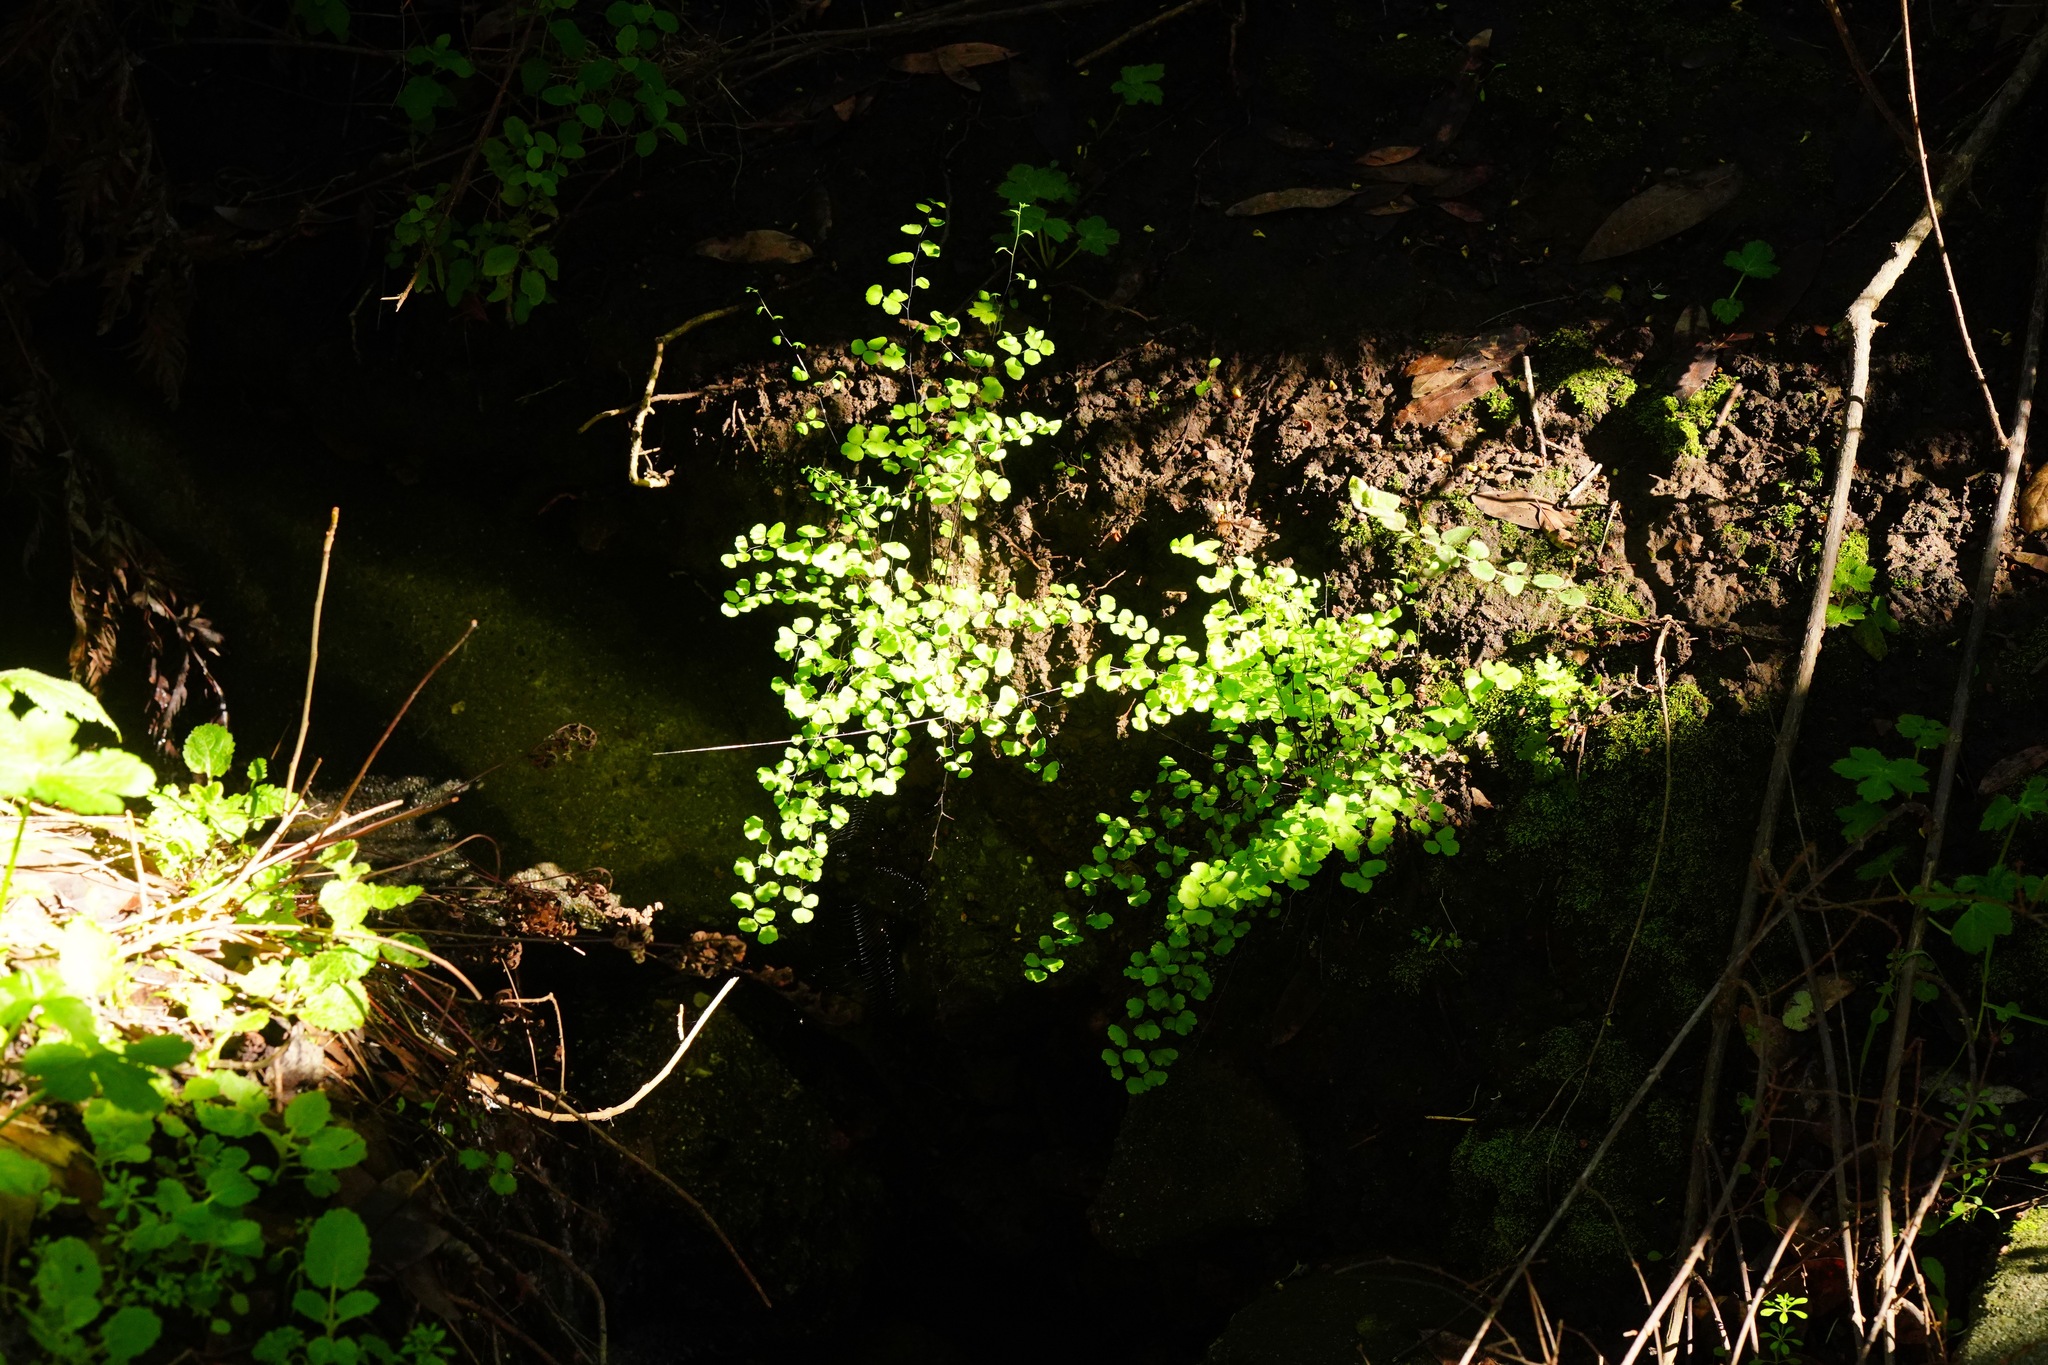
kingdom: Plantae
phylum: Tracheophyta
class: Polypodiopsida
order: Polypodiales
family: Pteridaceae
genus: Adiantum
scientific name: Adiantum jordanii
